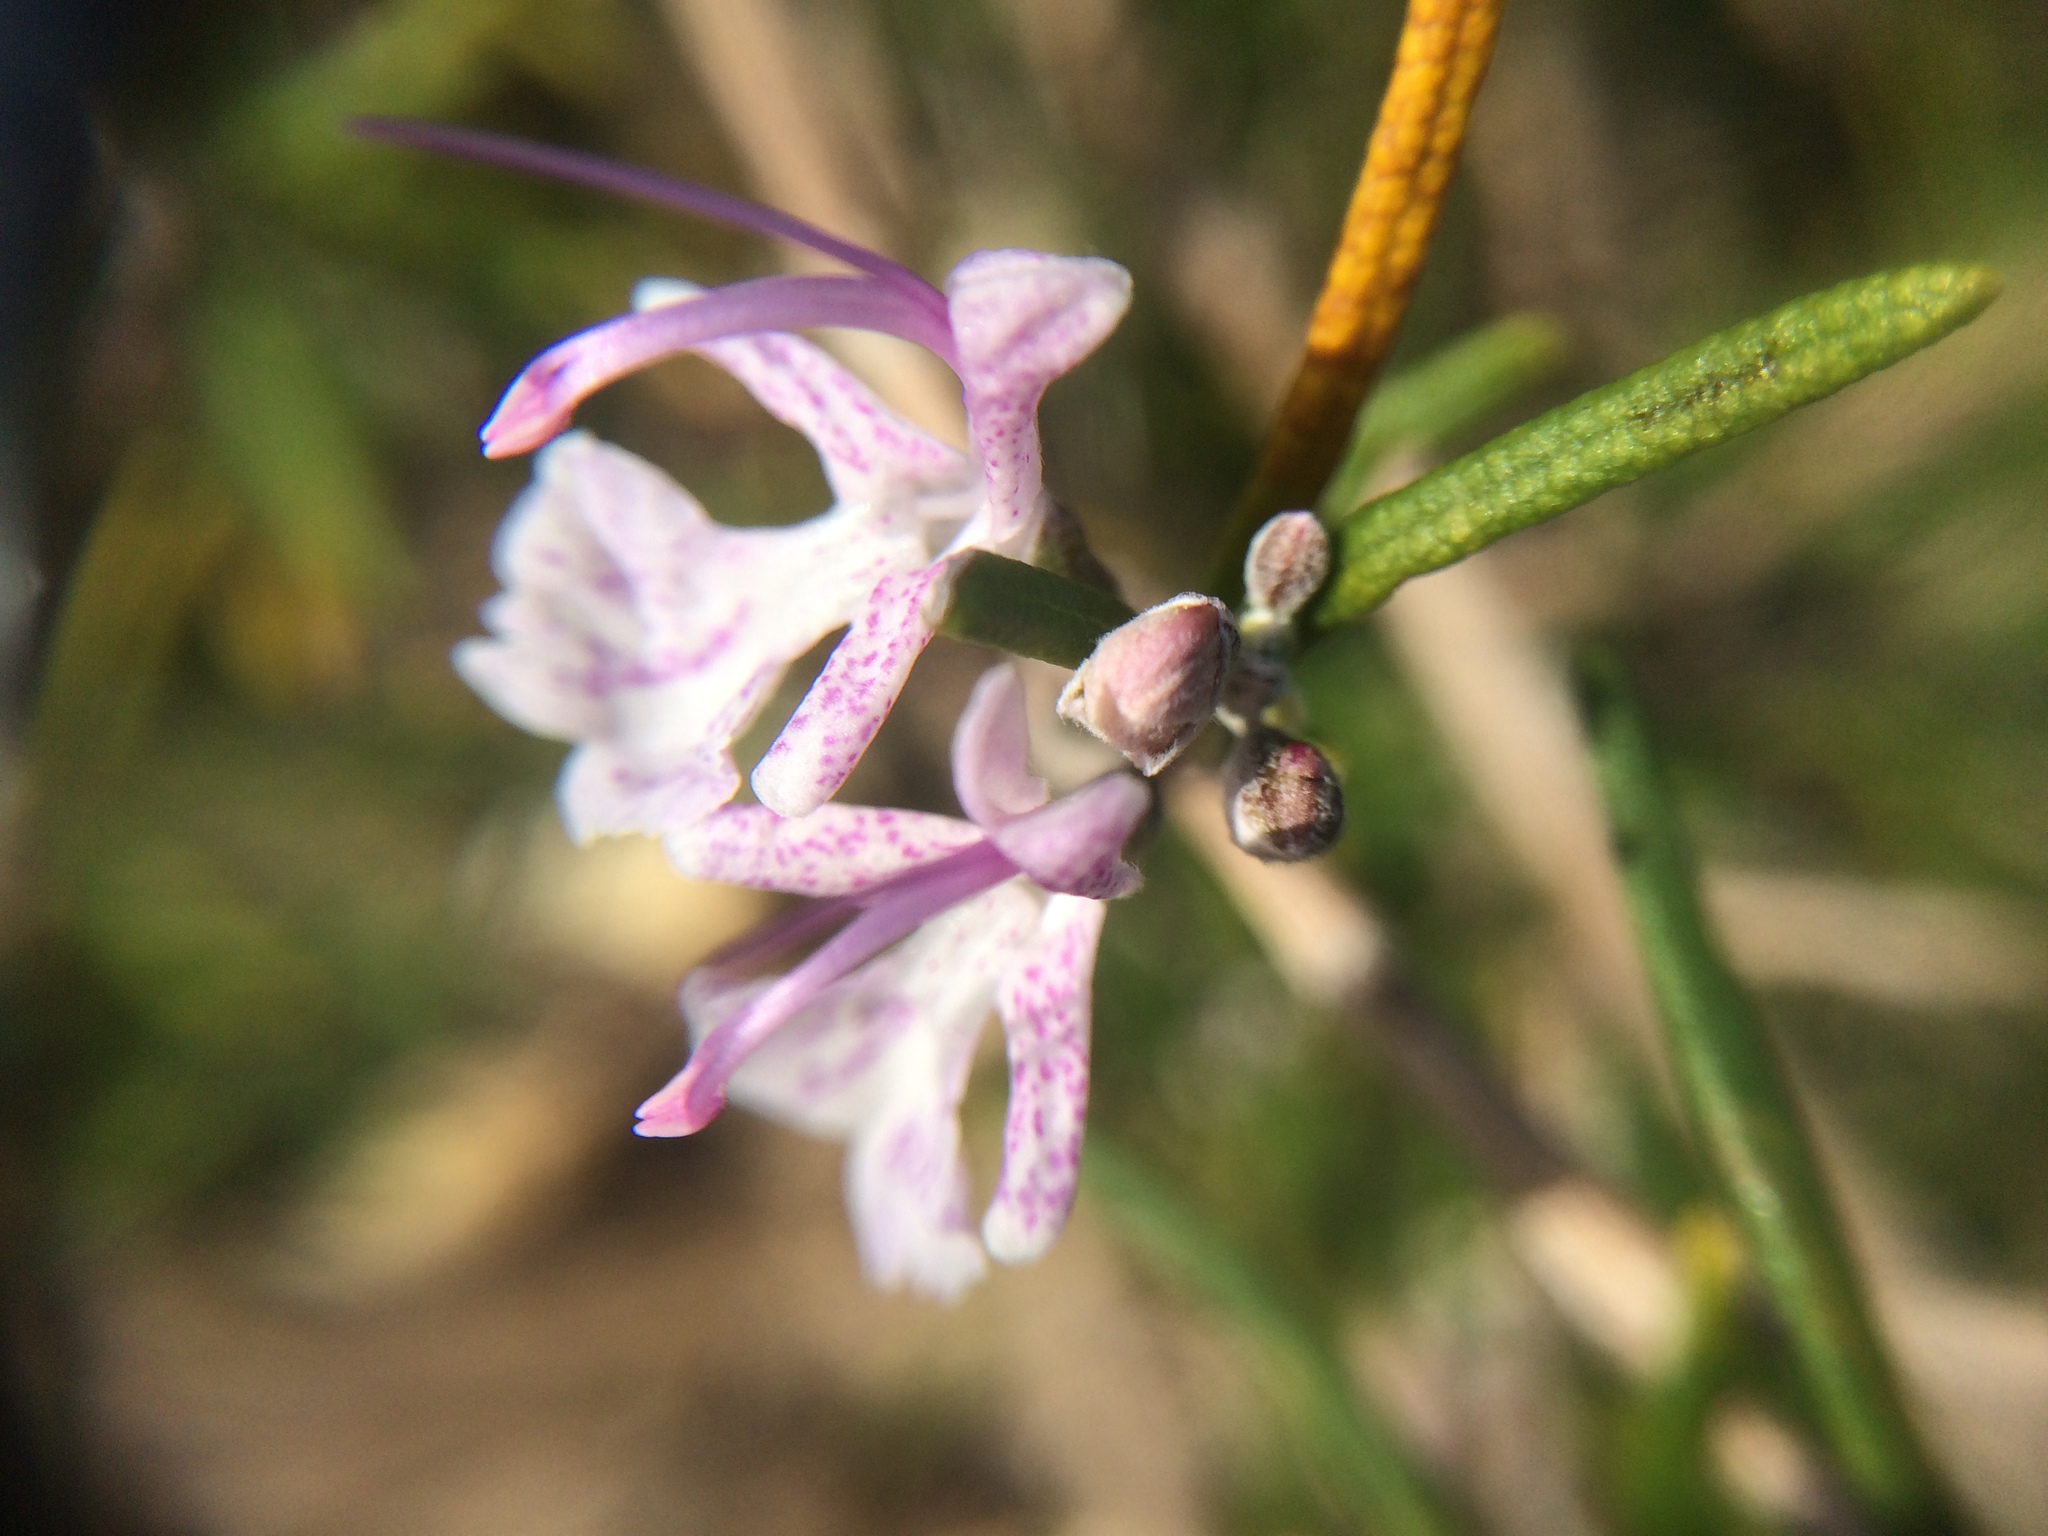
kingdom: Plantae
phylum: Tracheophyta
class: Magnoliopsida
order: Lamiales
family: Lamiaceae
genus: Salvia
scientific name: Salvia rosmarinus
